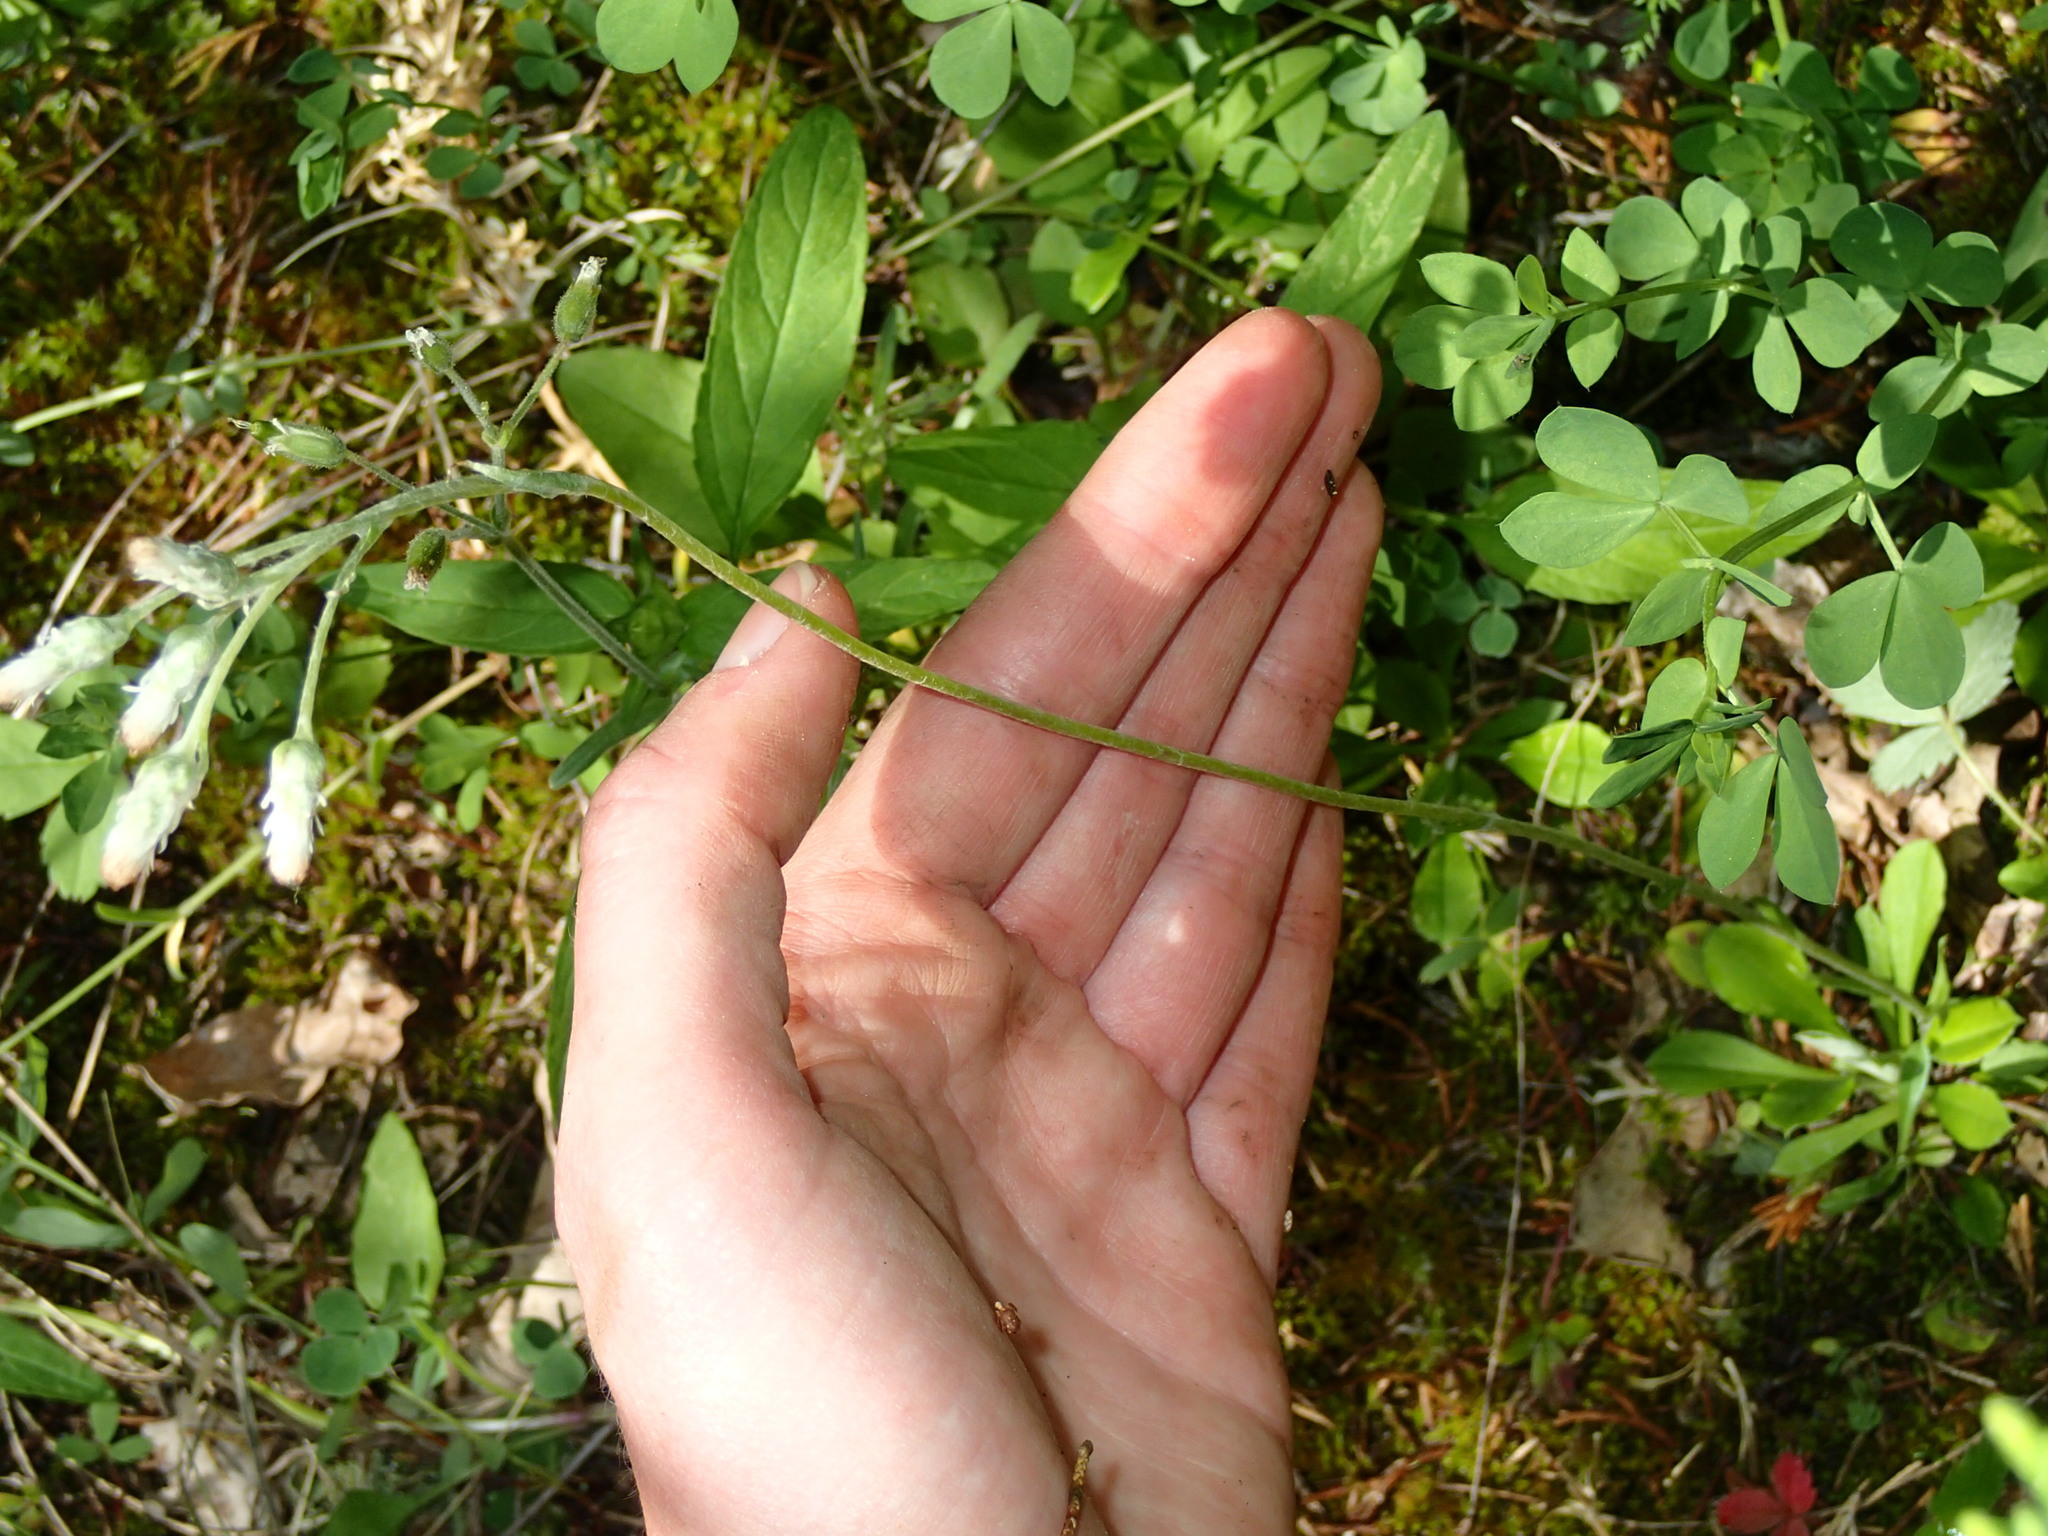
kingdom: Plantae
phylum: Tracheophyta
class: Magnoliopsida
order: Asterales
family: Asteraceae
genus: Antennaria
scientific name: Antennaria howellii
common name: Howell's pussytoes
